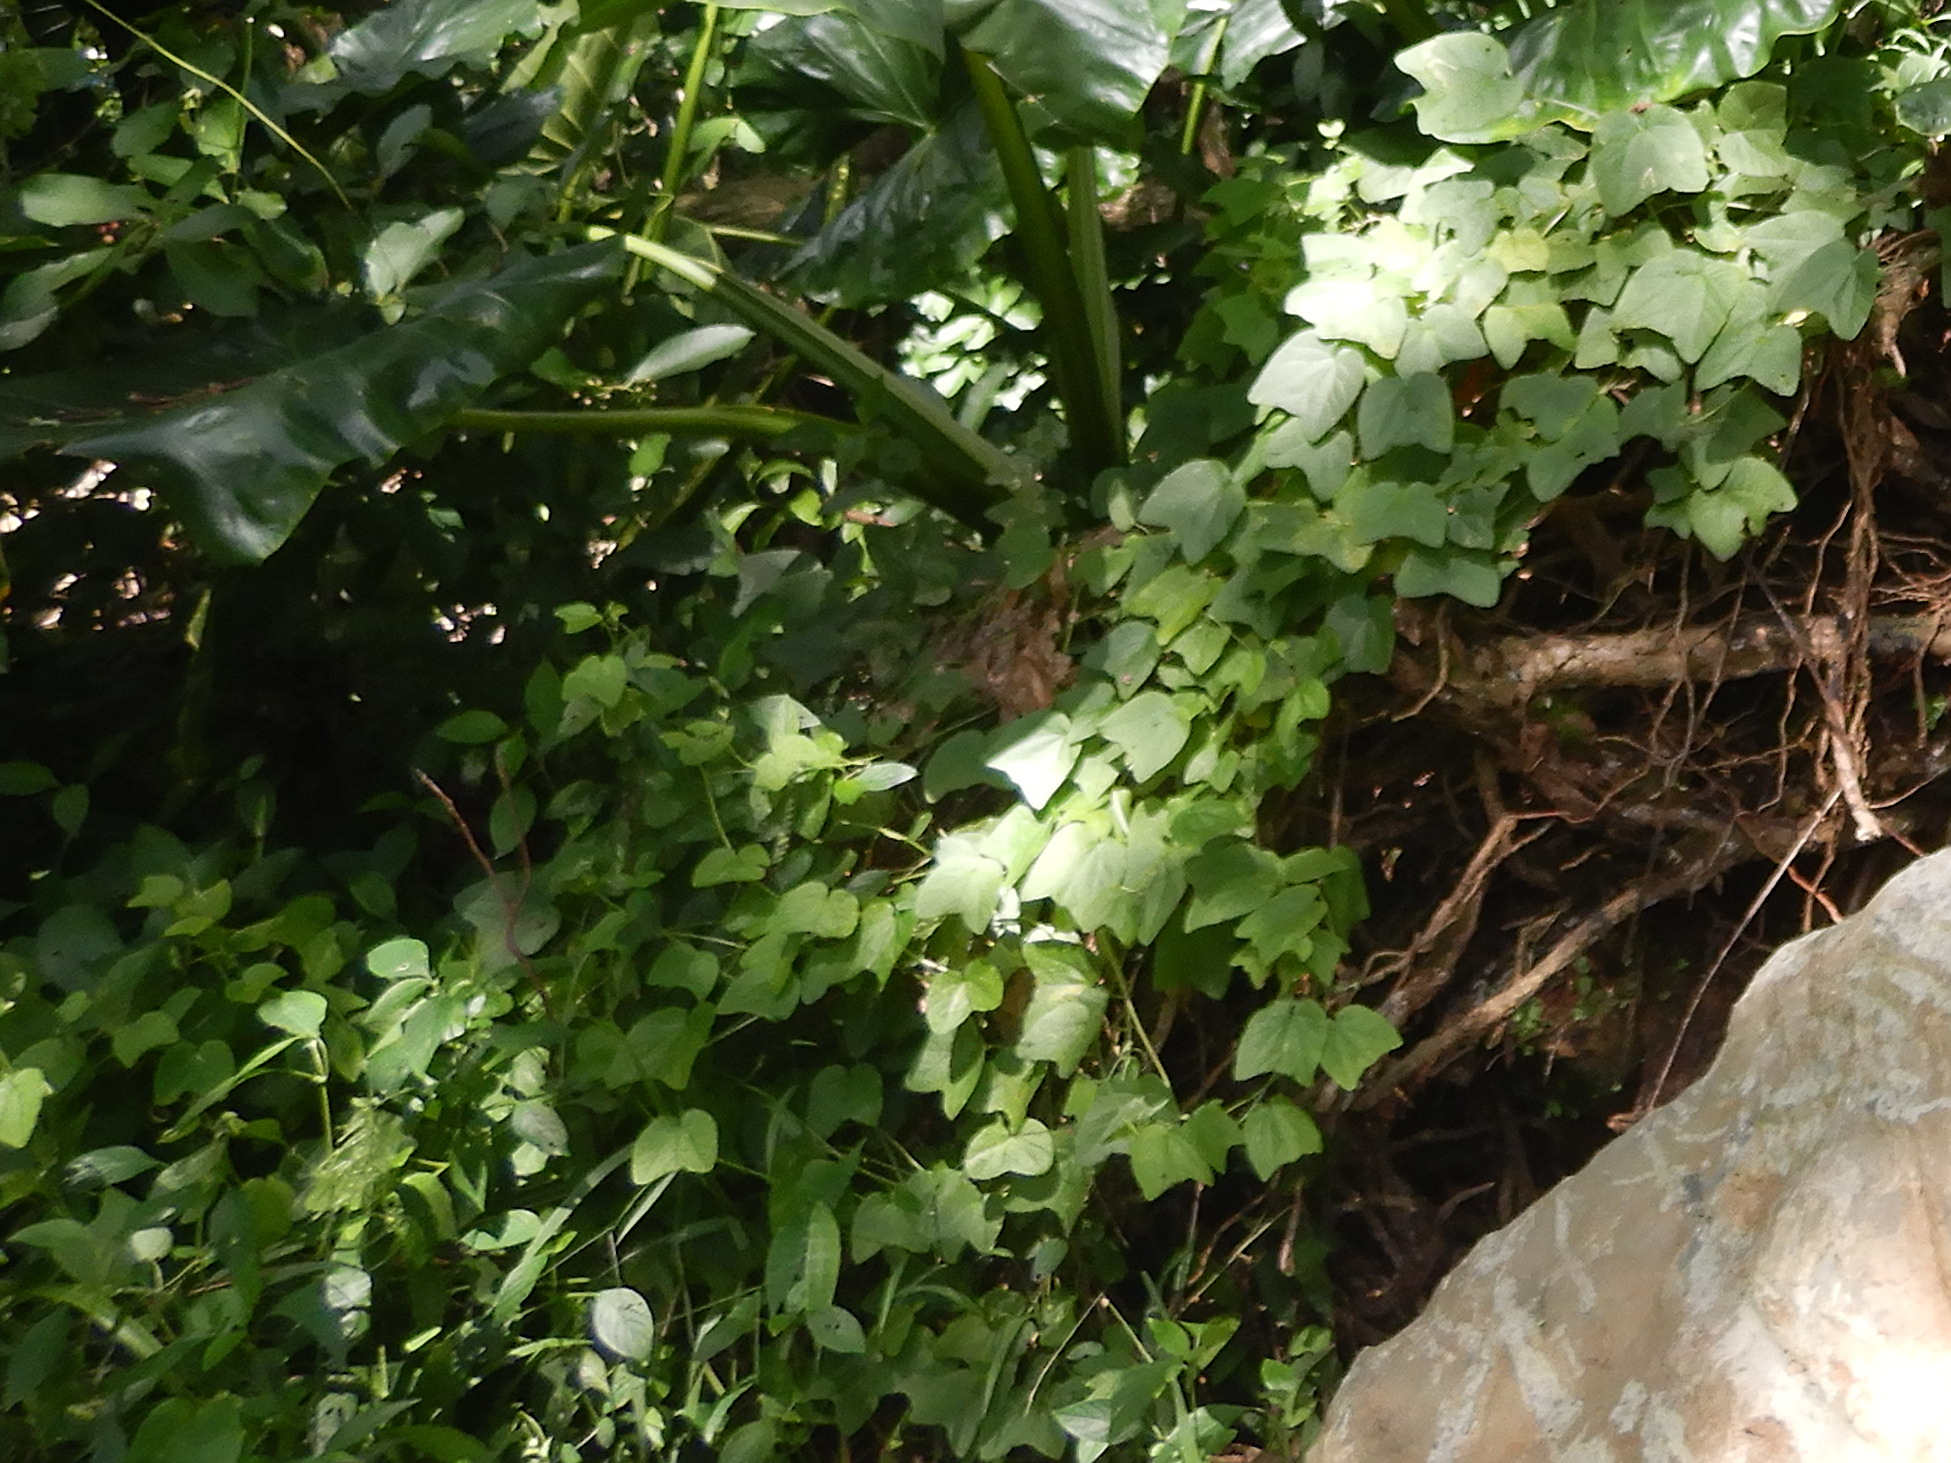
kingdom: Plantae
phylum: Tracheophyta
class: Magnoliopsida
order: Malpighiales
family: Passifloraceae
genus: Passiflora
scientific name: Passiflora rubra
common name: Snakeberry vine
